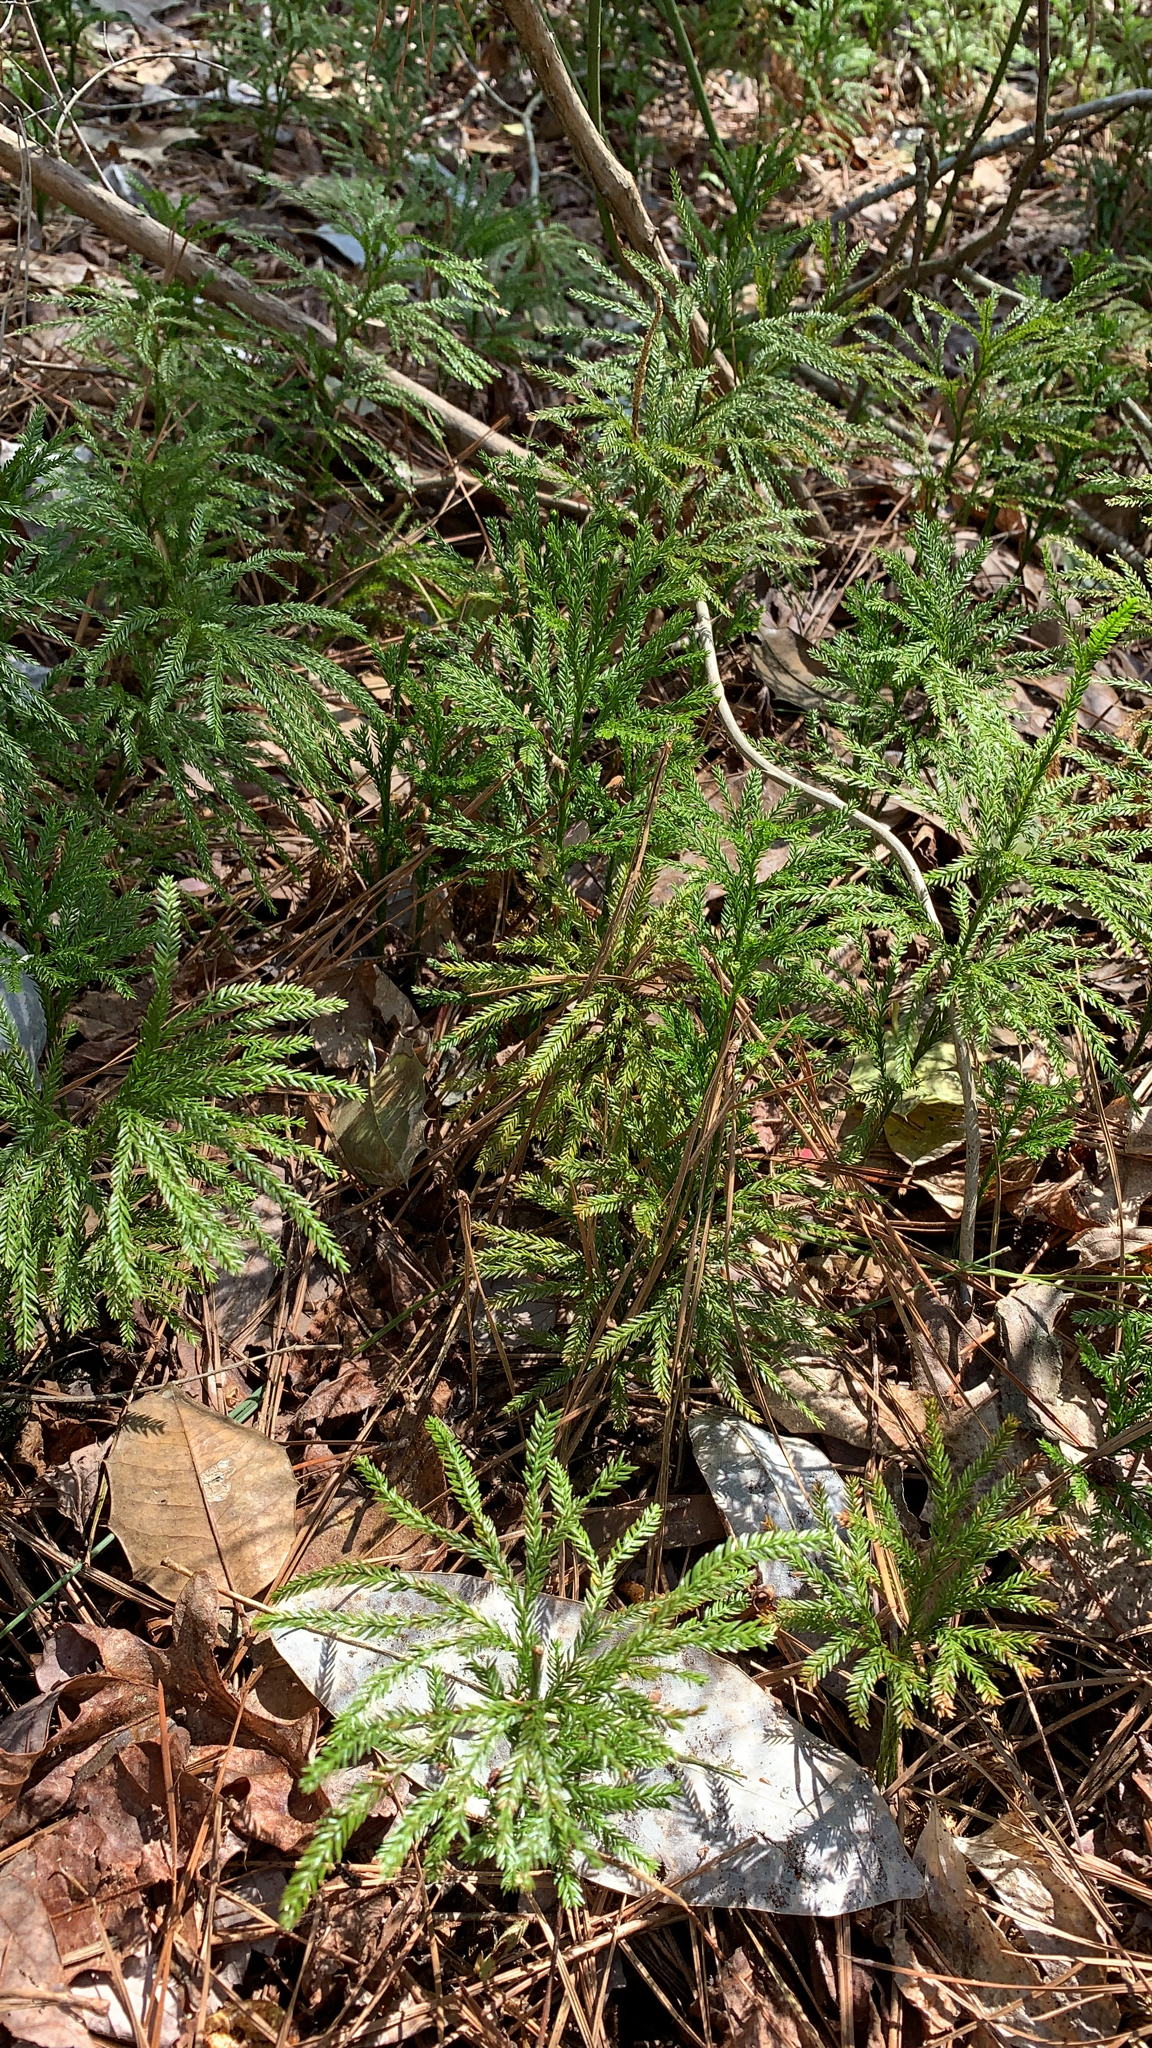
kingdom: Plantae
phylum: Tracheophyta
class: Lycopodiopsida
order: Lycopodiales
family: Lycopodiaceae
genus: Dendrolycopodium
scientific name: Dendrolycopodium obscurum
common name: Common ground-pine
